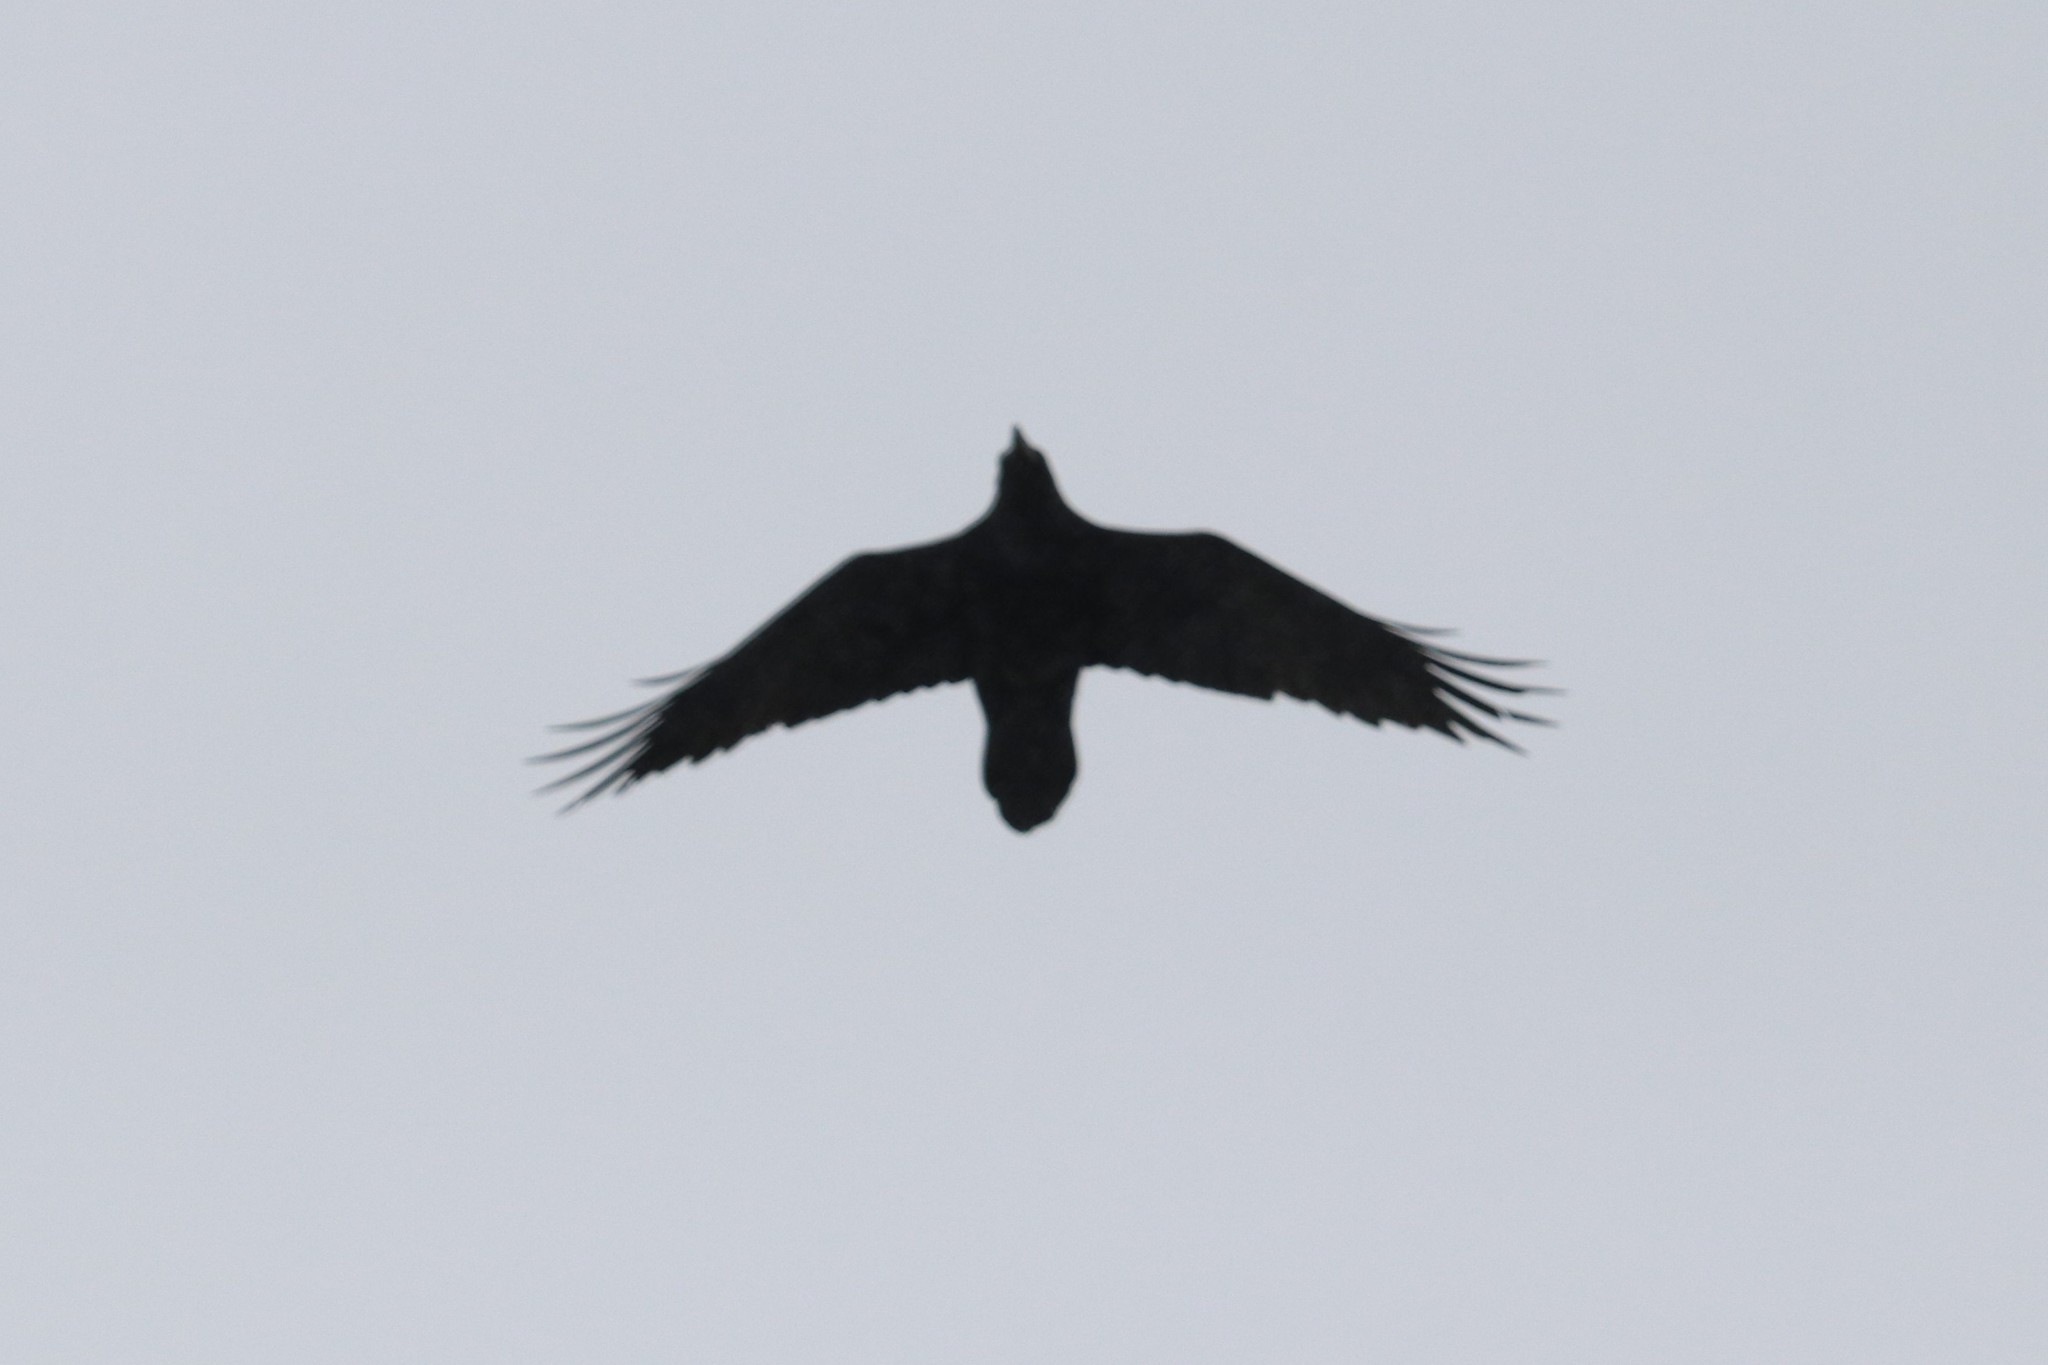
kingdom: Animalia
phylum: Chordata
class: Aves
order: Passeriformes
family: Corvidae
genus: Corvus
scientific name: Corvus corax
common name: Common raven
